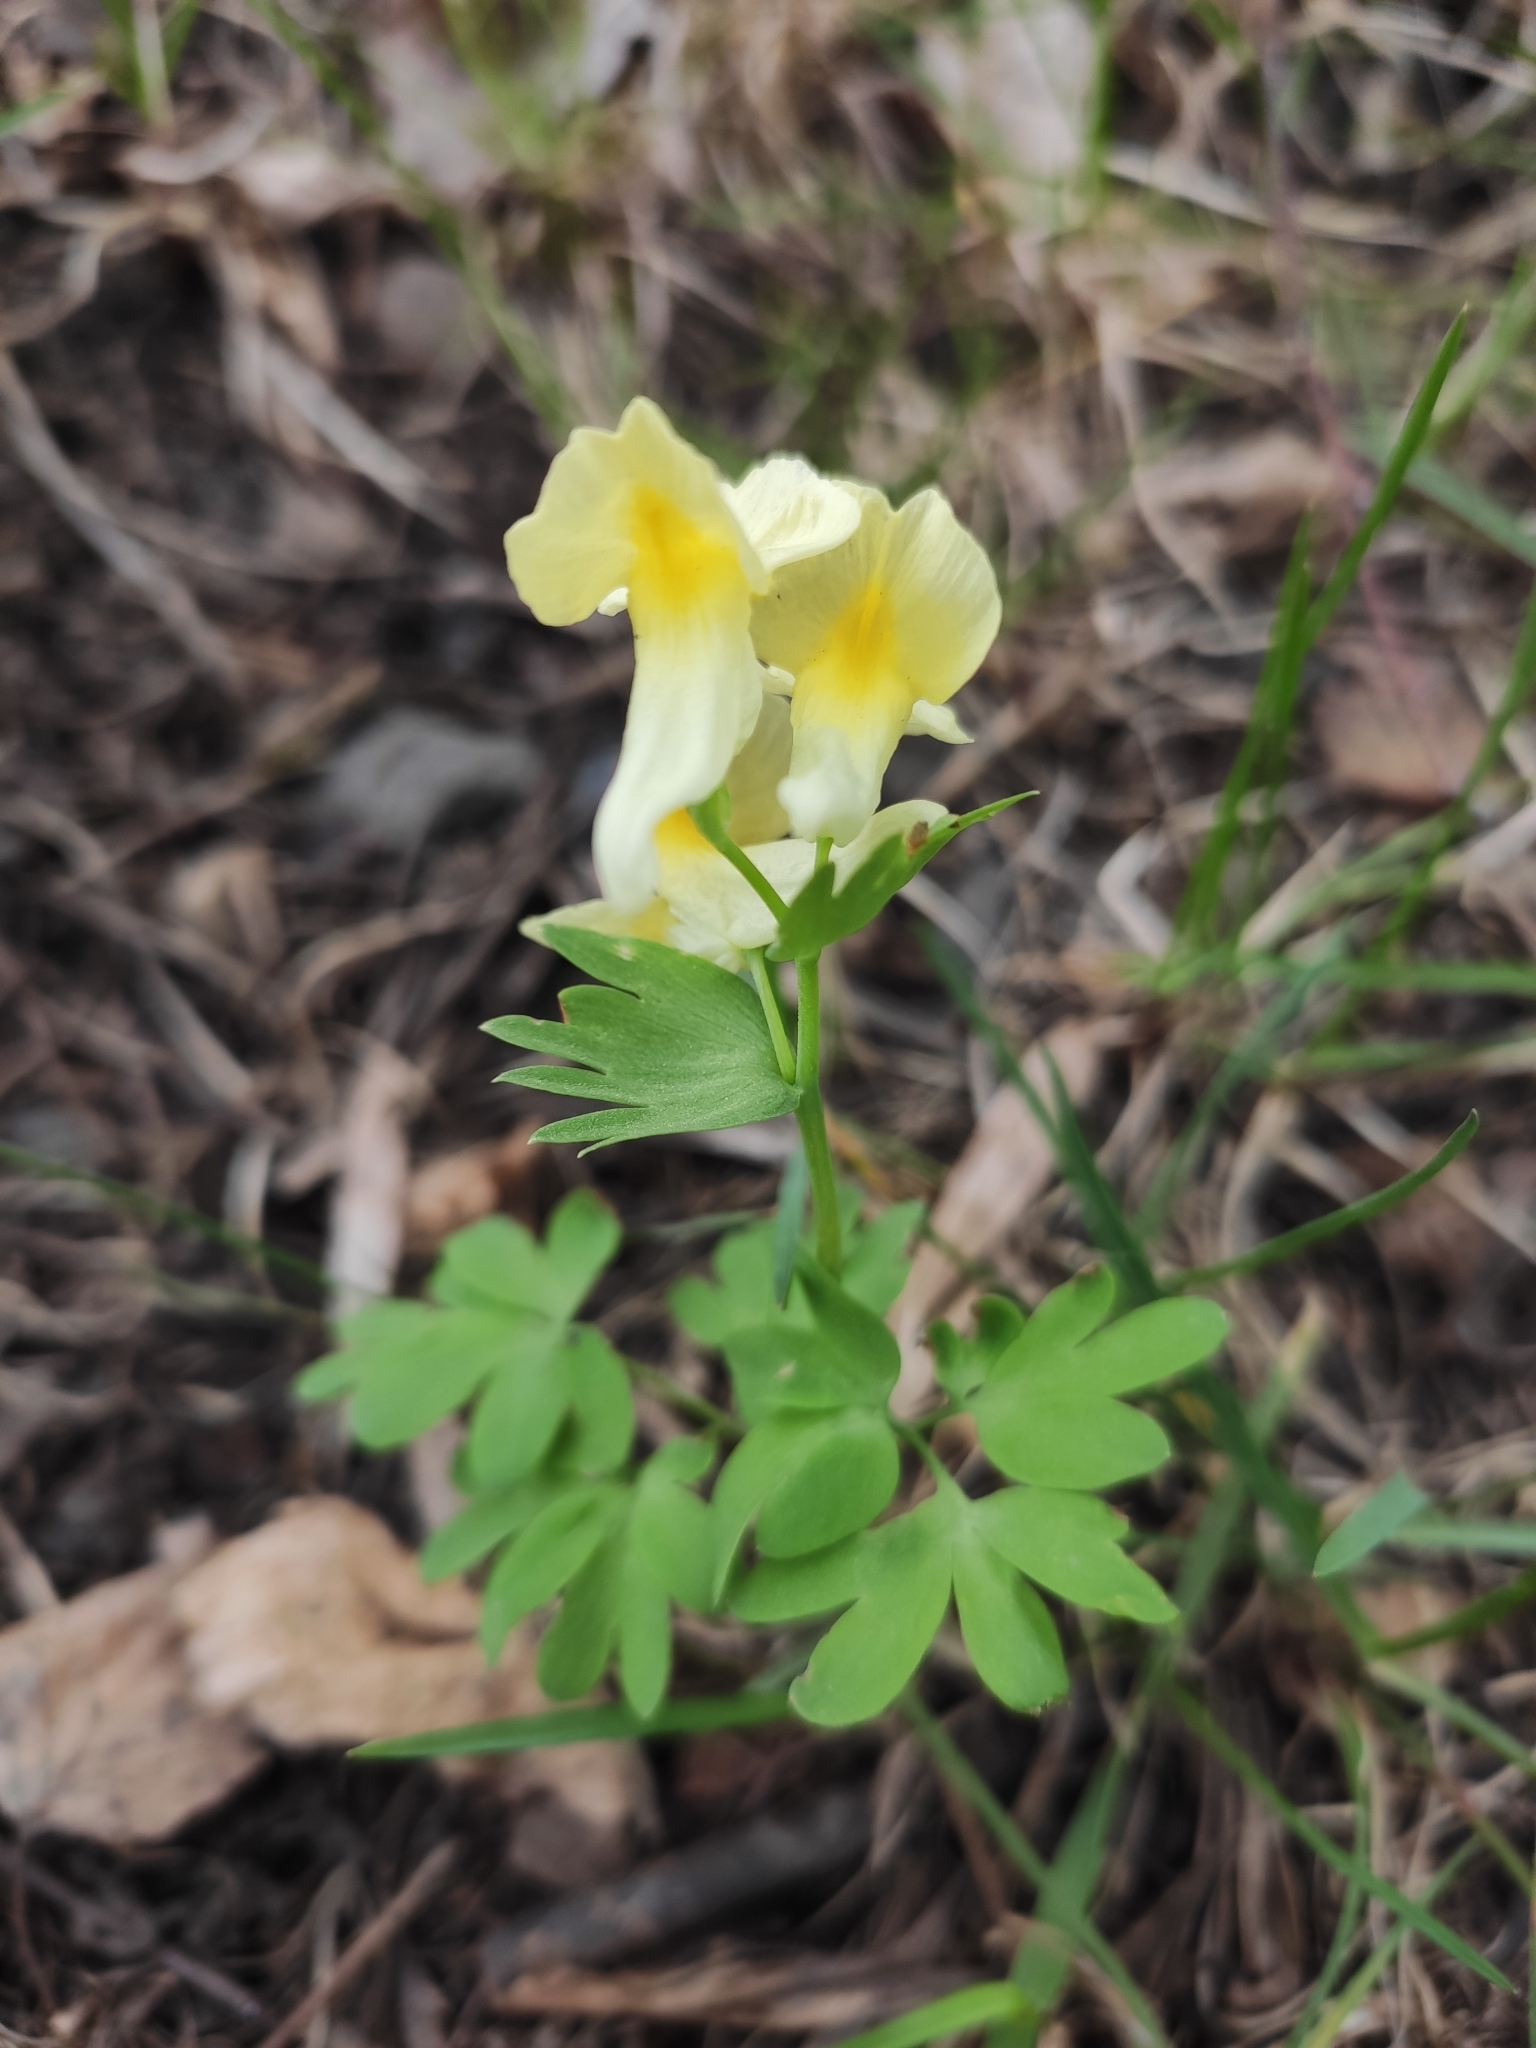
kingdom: Plantae
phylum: Tracheophyta
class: Magnoliopsida
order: Ranunculales
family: Papaveraceae
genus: Corydalis
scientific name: Corydalis bracteata
